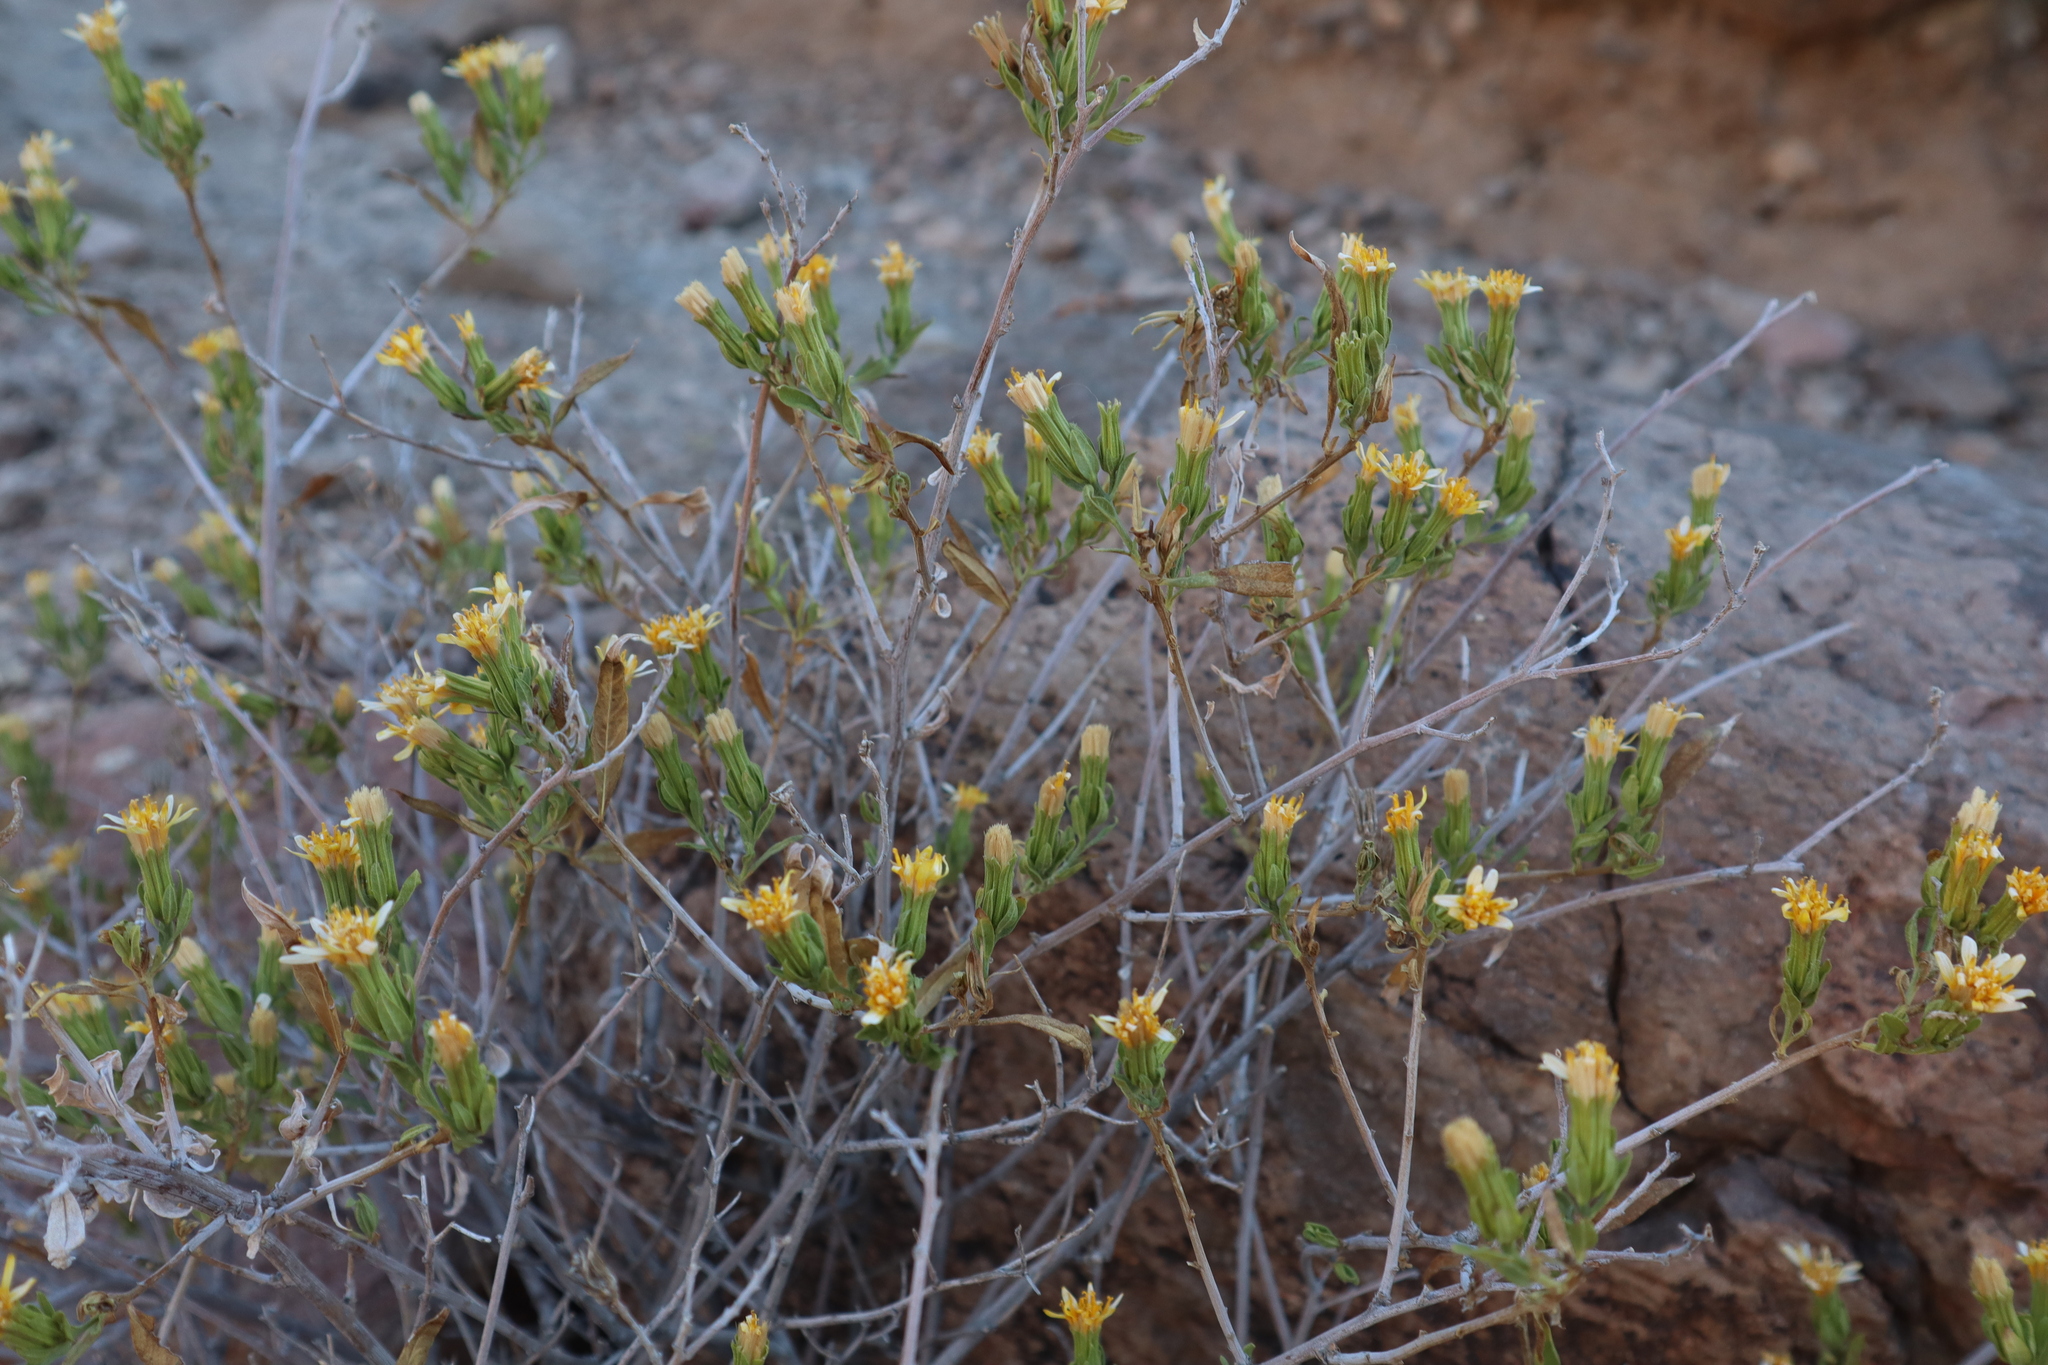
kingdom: Plantae
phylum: Tracheophyta
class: Magnoliopsida
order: Asterales
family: Asteraceae
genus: Trixis
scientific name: Trixis californica
